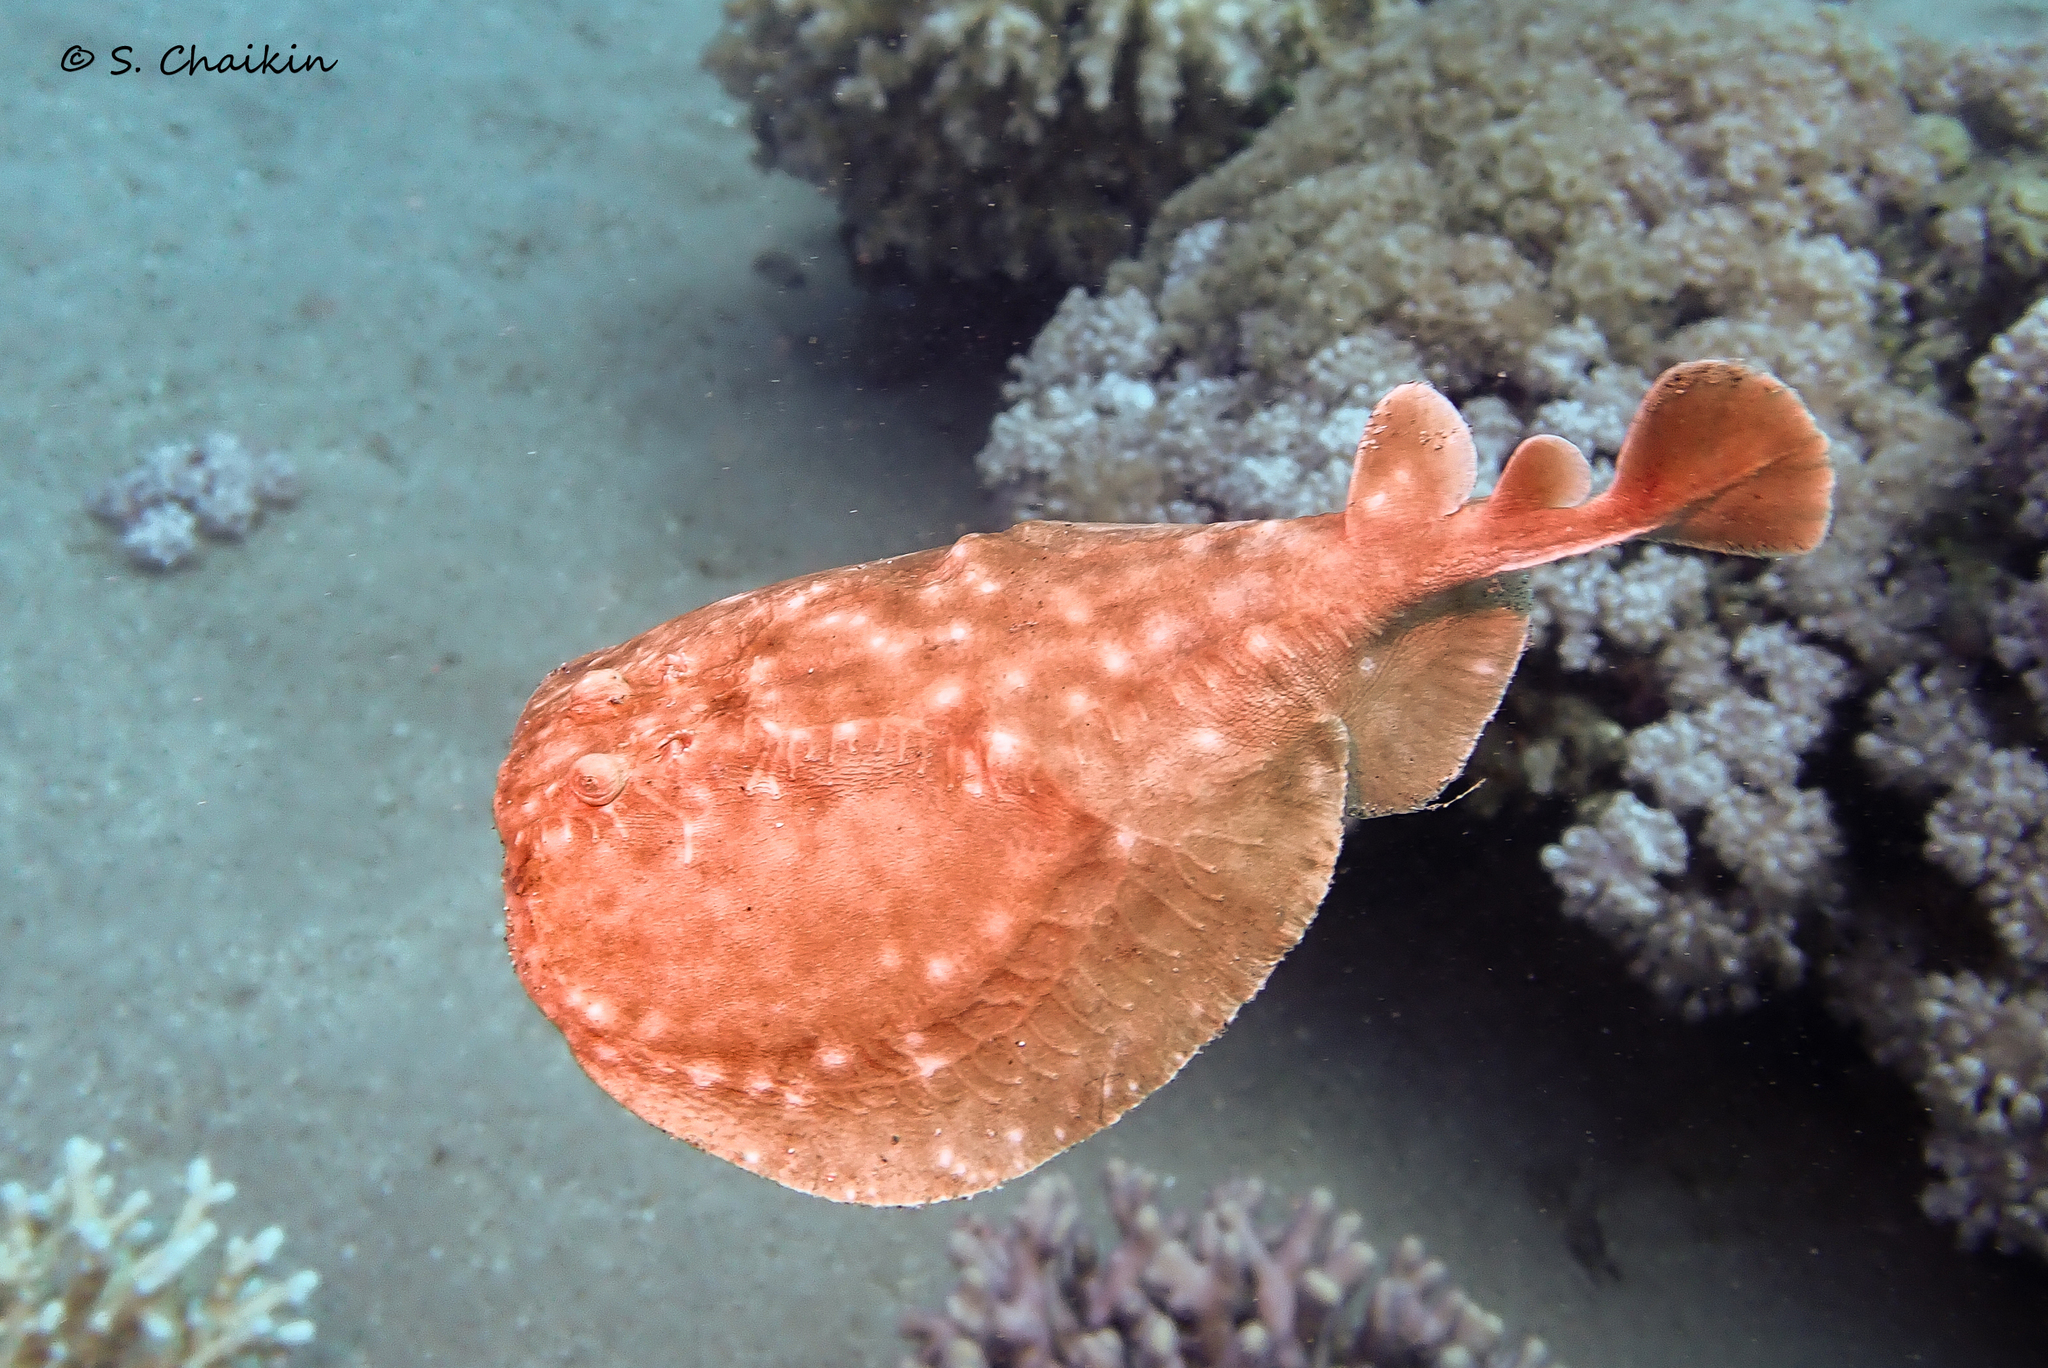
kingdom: Animalia
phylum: Chordata
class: Elasmobranchii
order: Torpediniformes
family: Torpedinidae
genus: Torpedo
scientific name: Torpedo panthera
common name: Leopard torpedo
